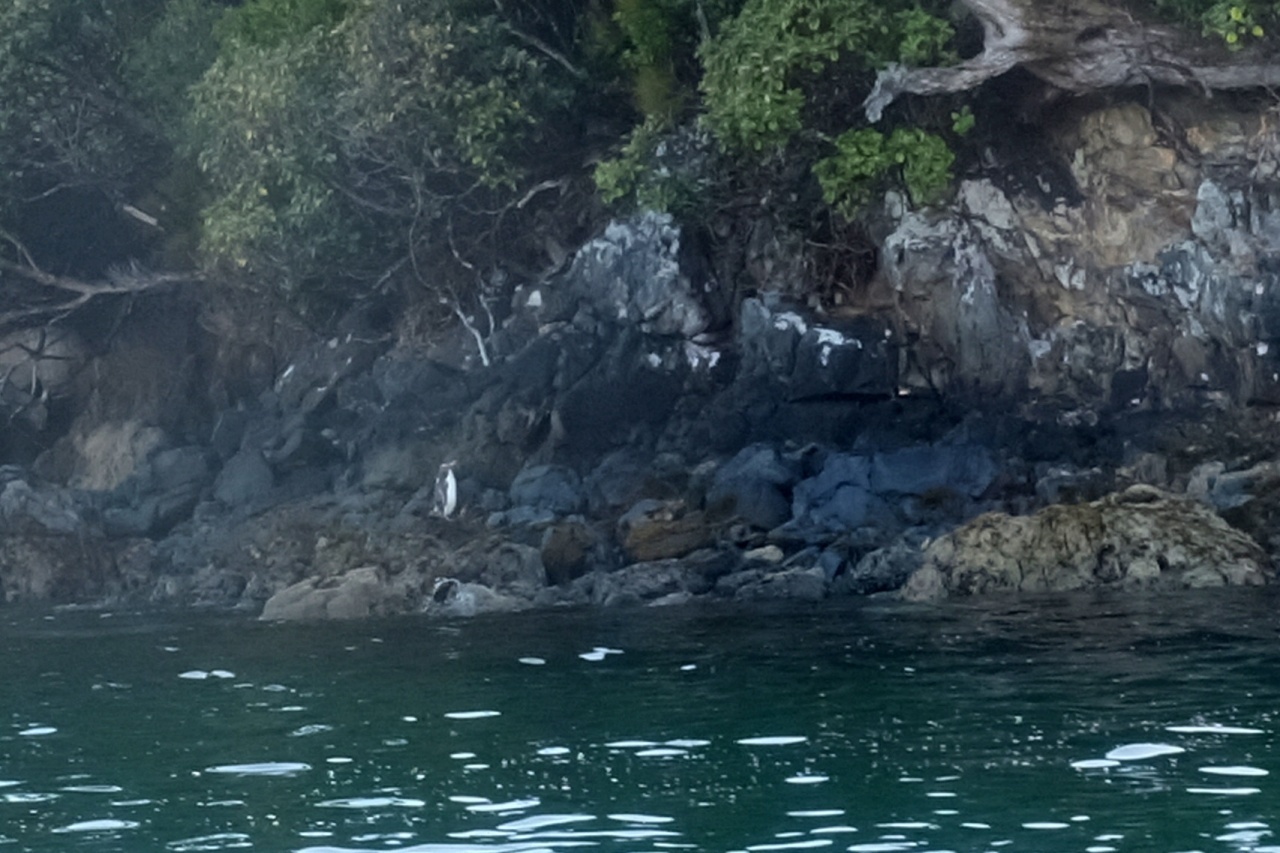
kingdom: Animalia
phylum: Chordata
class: Aves
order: Sphenisciformes
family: Spheniscidae
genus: Megadyptes
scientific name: Megadyptes antipodes
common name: Yellow-eyed penguin
